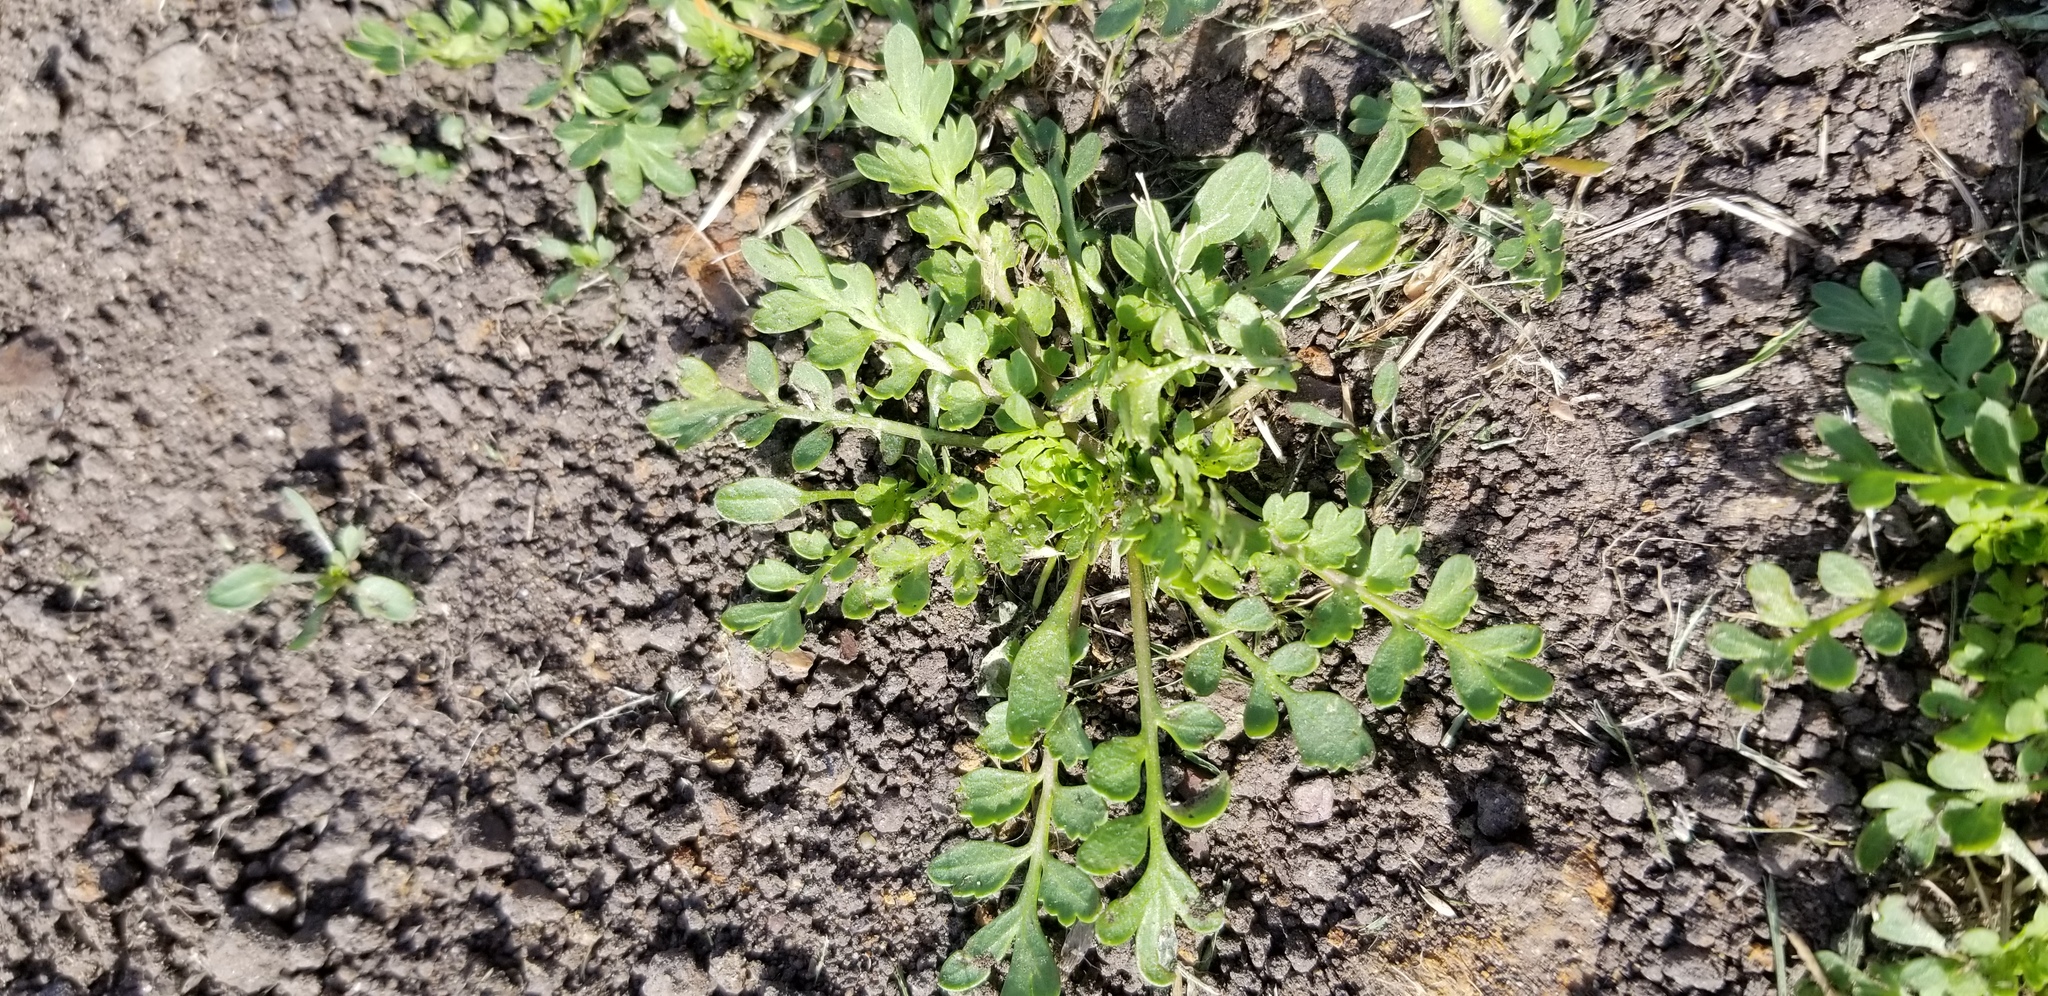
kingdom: Plantae
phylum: Tracheophyta
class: Magnoliopsida
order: Brassicales
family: Brassicaceae
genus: Capsella
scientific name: Capsella bursa-pastoris
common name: Shepherd's purse
